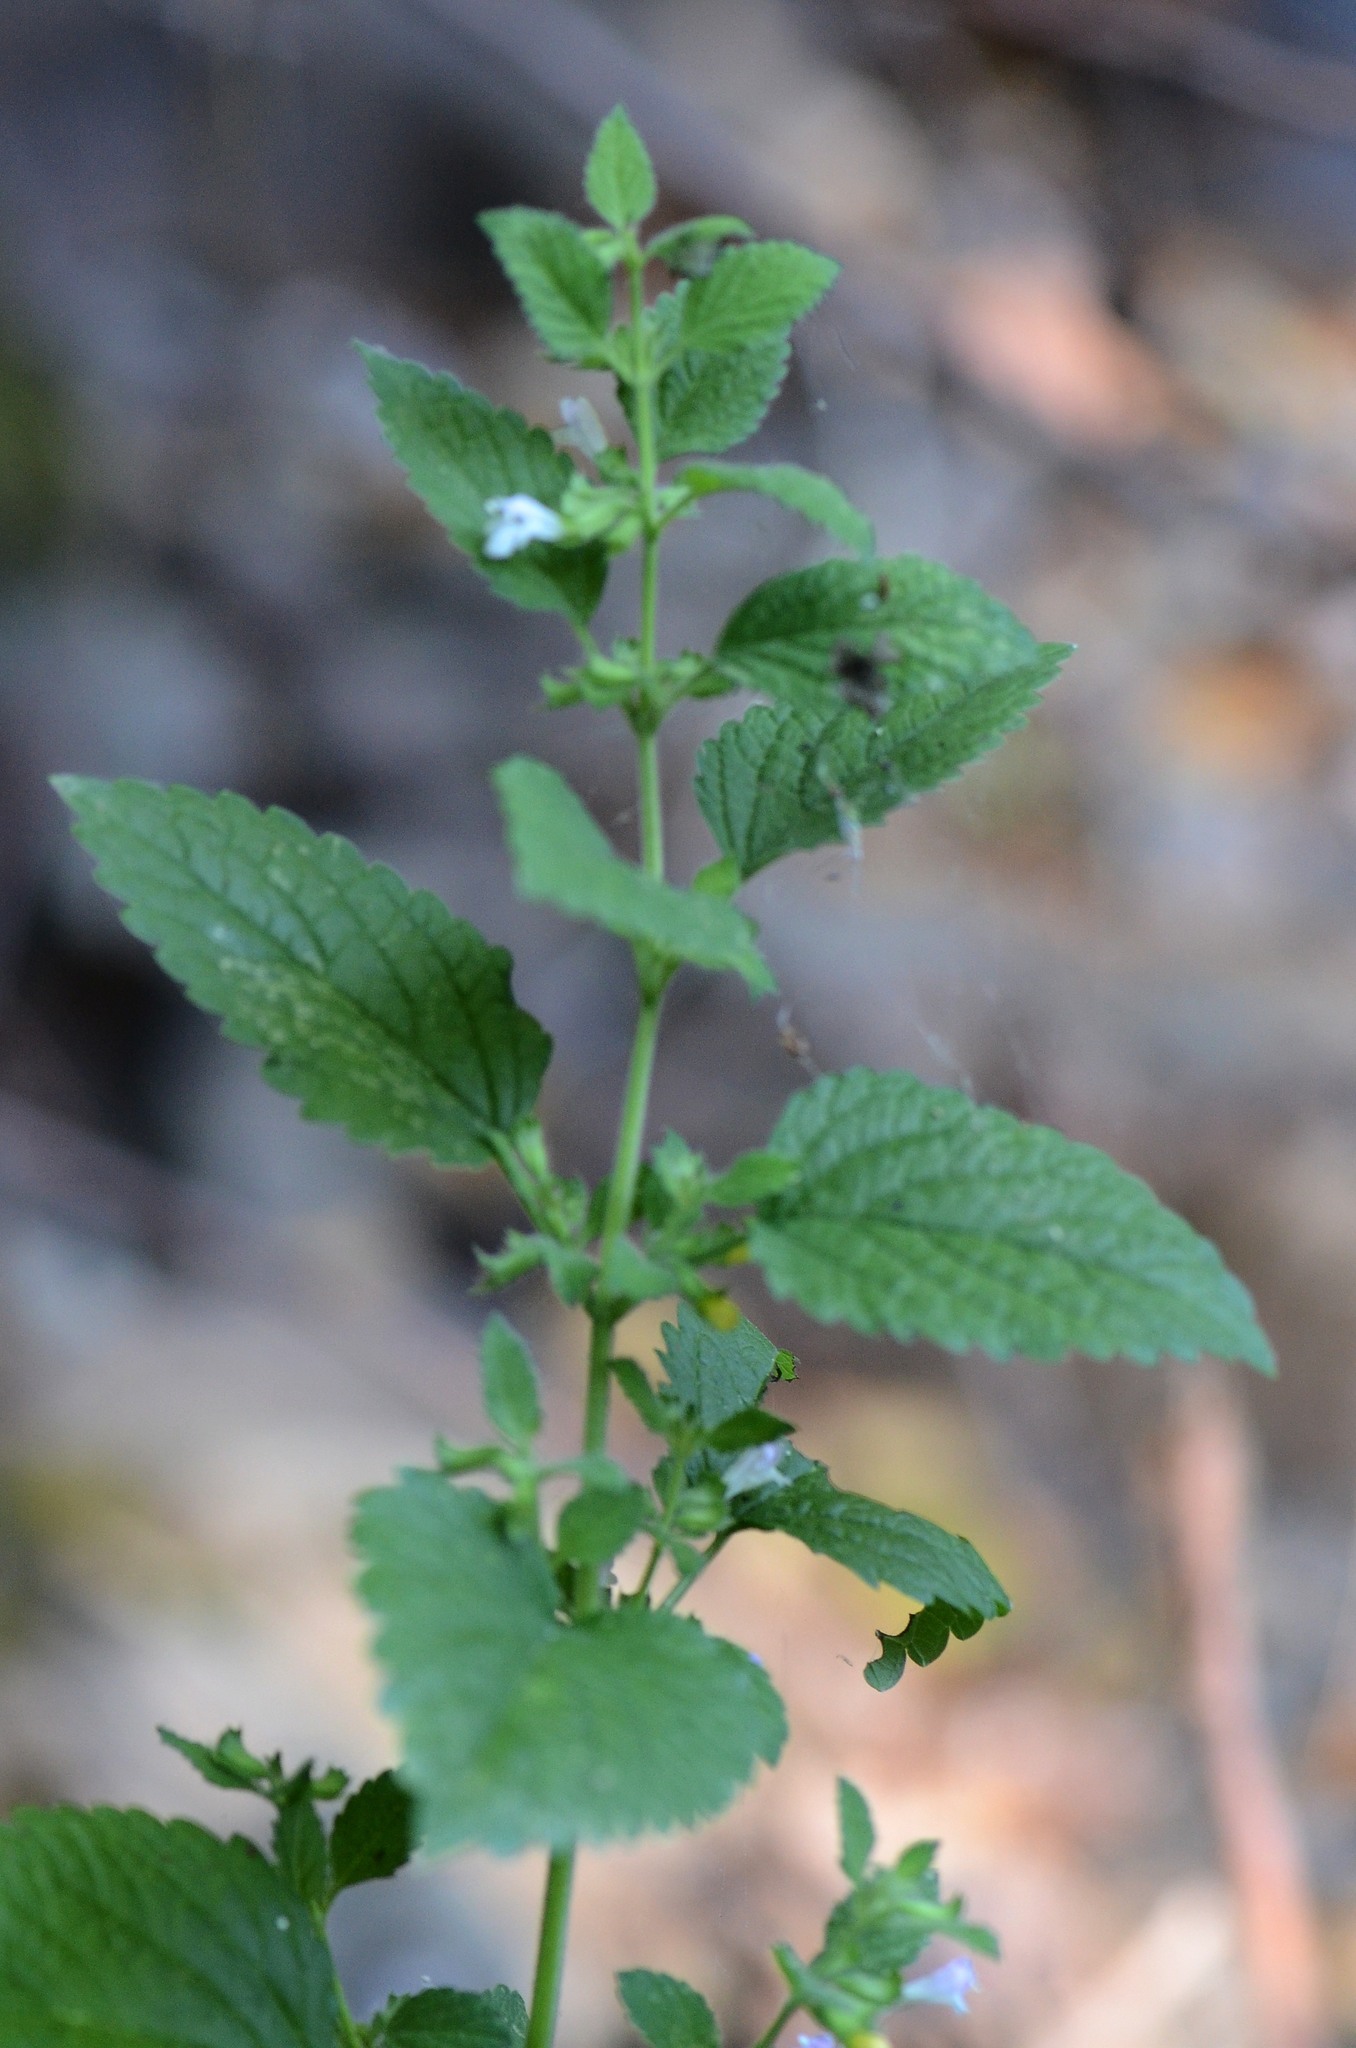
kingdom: Plantae
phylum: Tracheophyta
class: Magnoliopsida
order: Lamiales
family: Lamiaceae
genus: Melissa
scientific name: Melissa officinalis
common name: Balm
